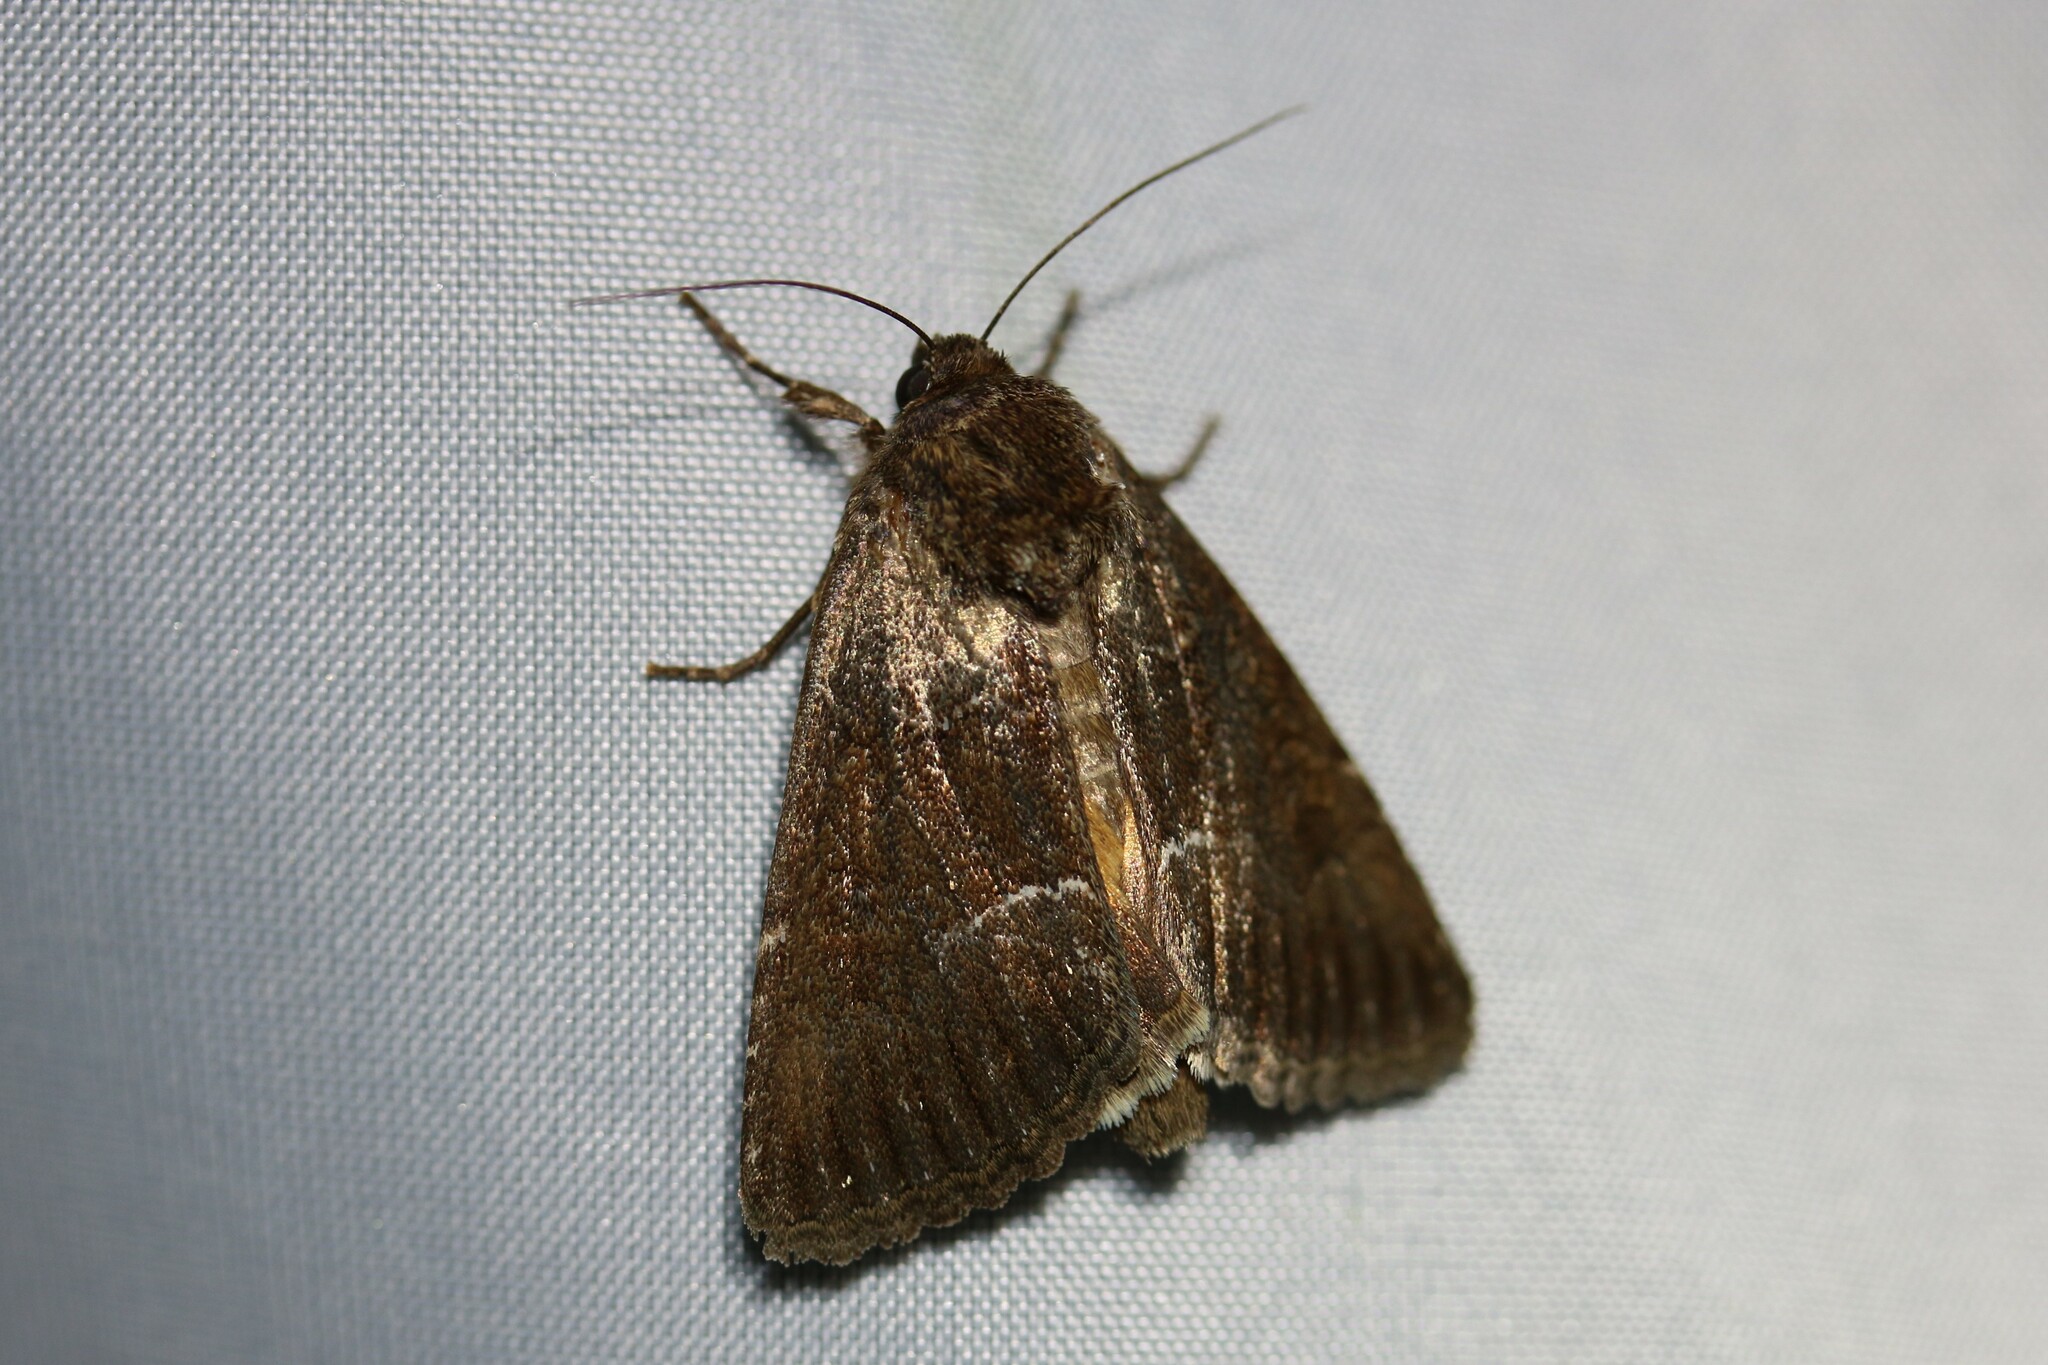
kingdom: Animalia
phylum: Arthropoda
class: Insecta
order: Lepidoptera
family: Noctuidae
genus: Thalpophila
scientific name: Thalpophila matura
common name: Straw underwing
